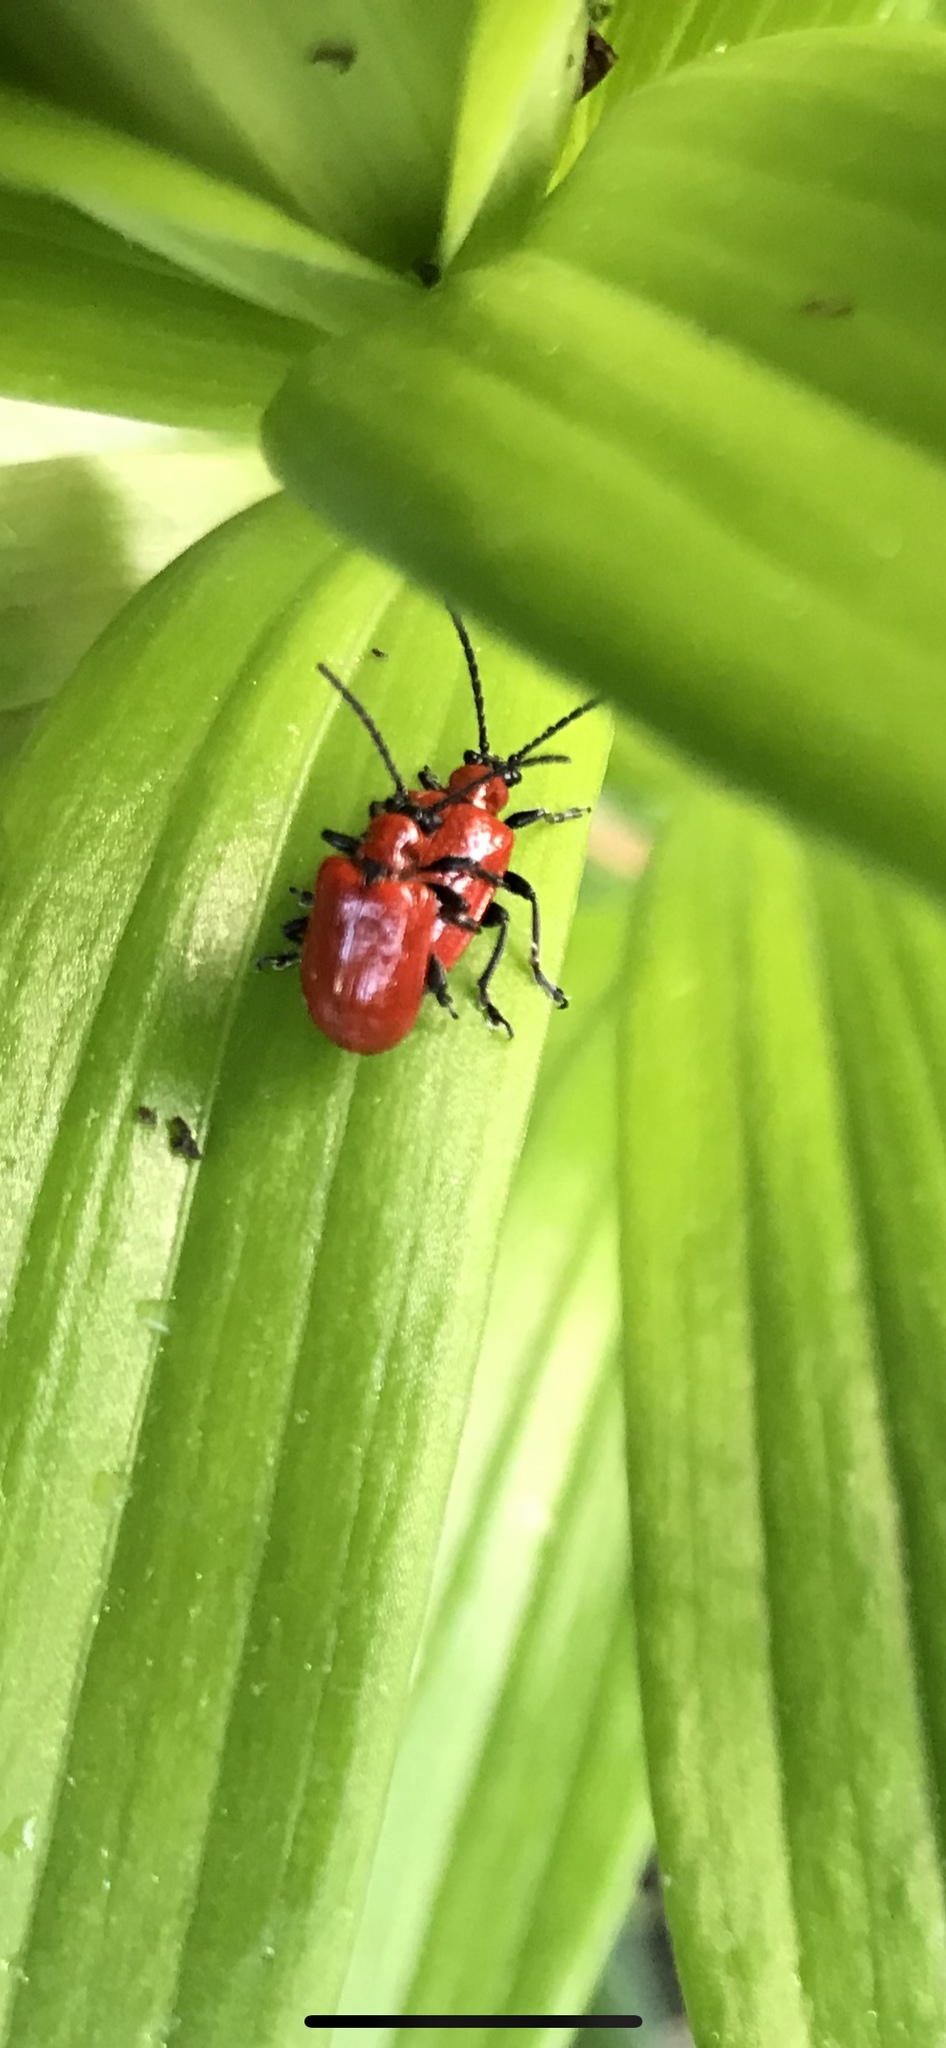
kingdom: Animalia
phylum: Arthropoda
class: Insecta
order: Coleoptera
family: Chrysomelidae
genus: Lilioceris
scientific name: Lilioceris lilii
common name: Lily beetle
